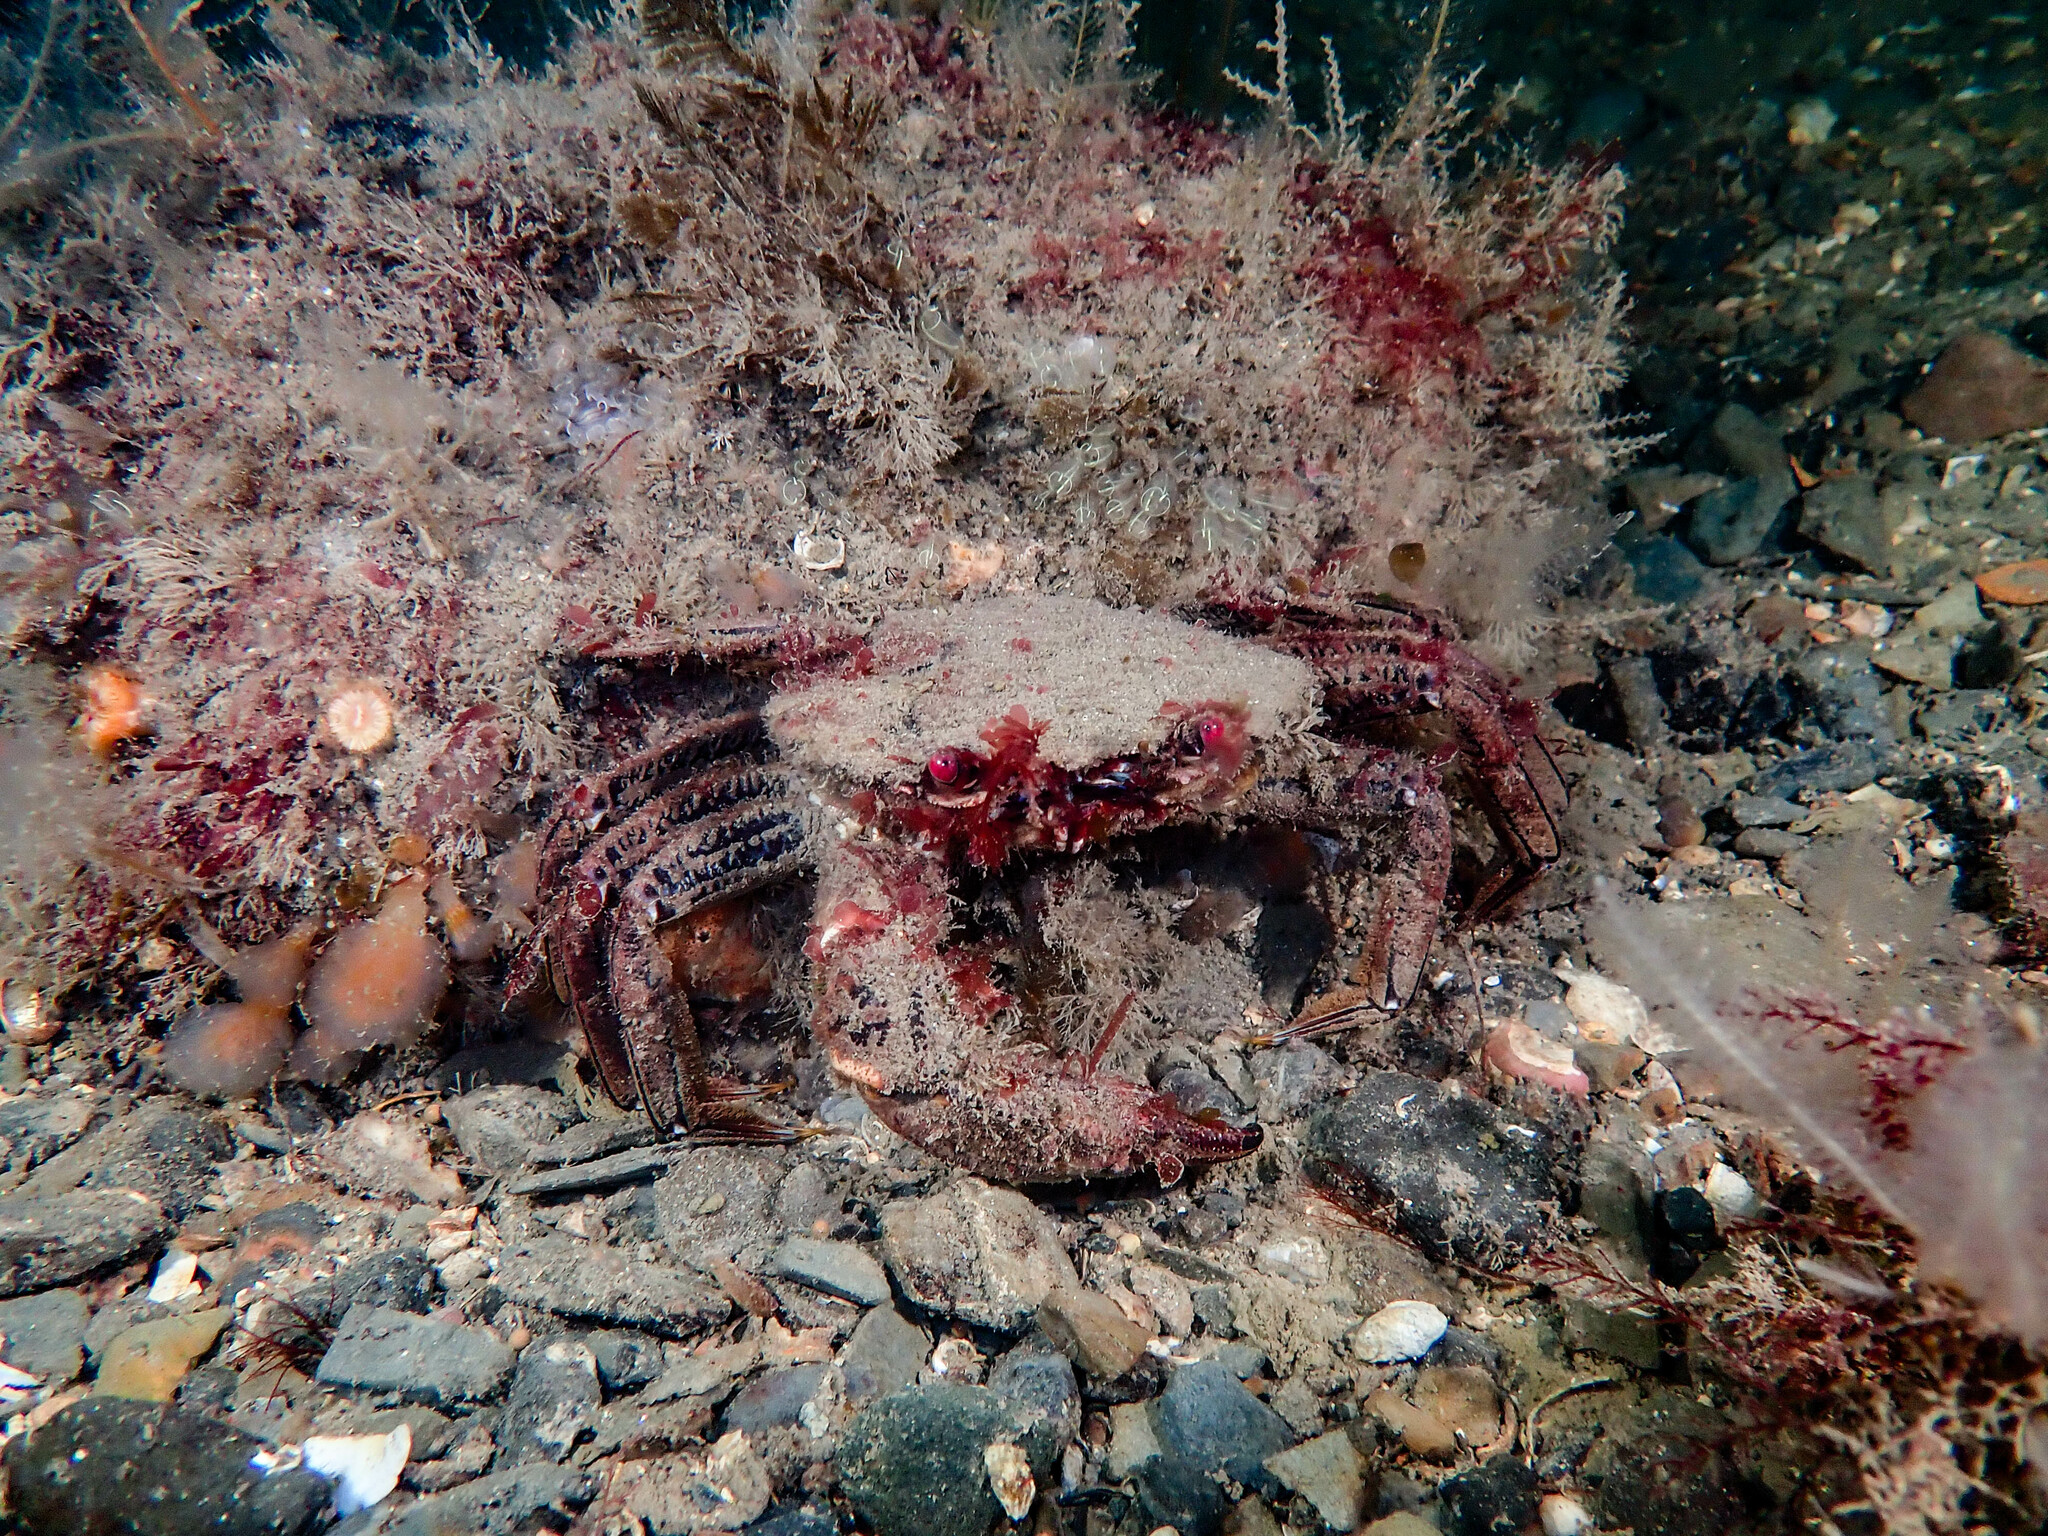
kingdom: Animalia
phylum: Arthropoda
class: Malacostraca
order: Decapoda
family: Polybiidae
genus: Necora
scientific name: Necora puber
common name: Velvet swimming crab
